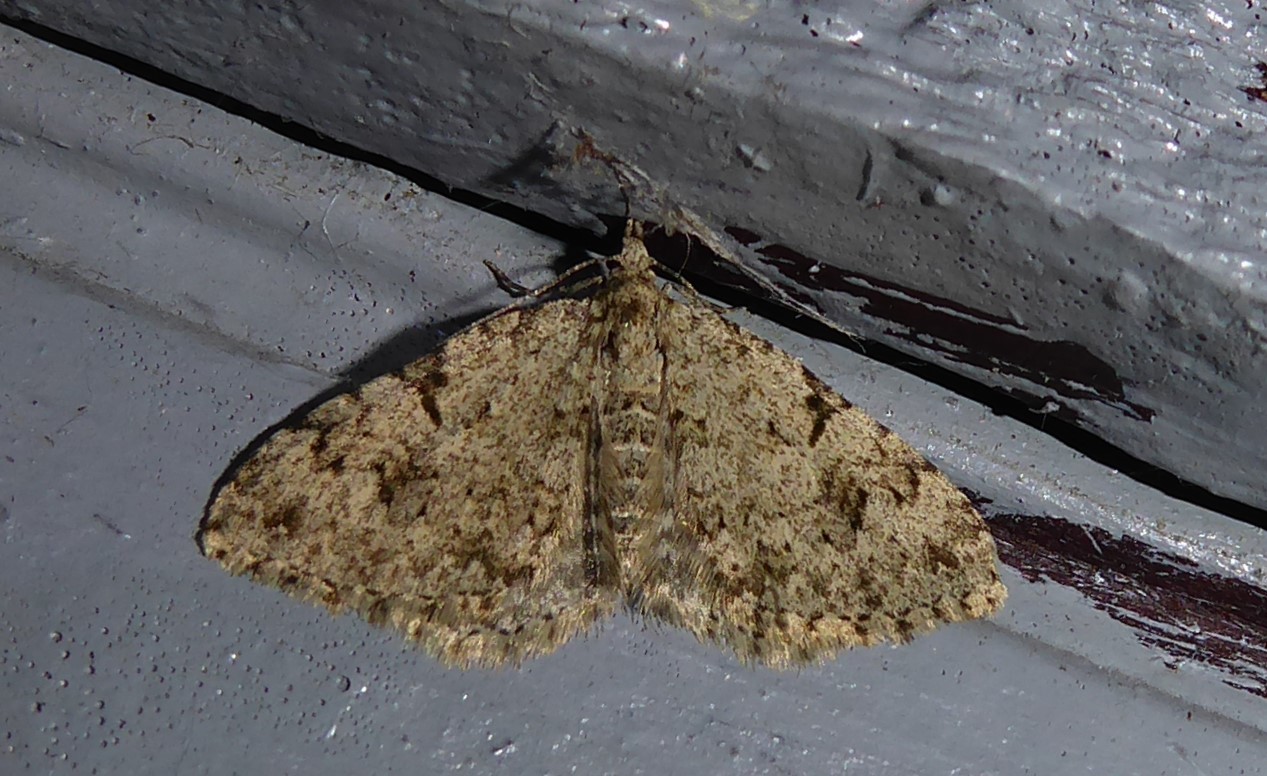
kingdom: Animalia
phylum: Arthropoda
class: Insecta
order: Lepidoptera
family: Geometridae
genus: Helastia
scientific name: Helastia cinerearia
